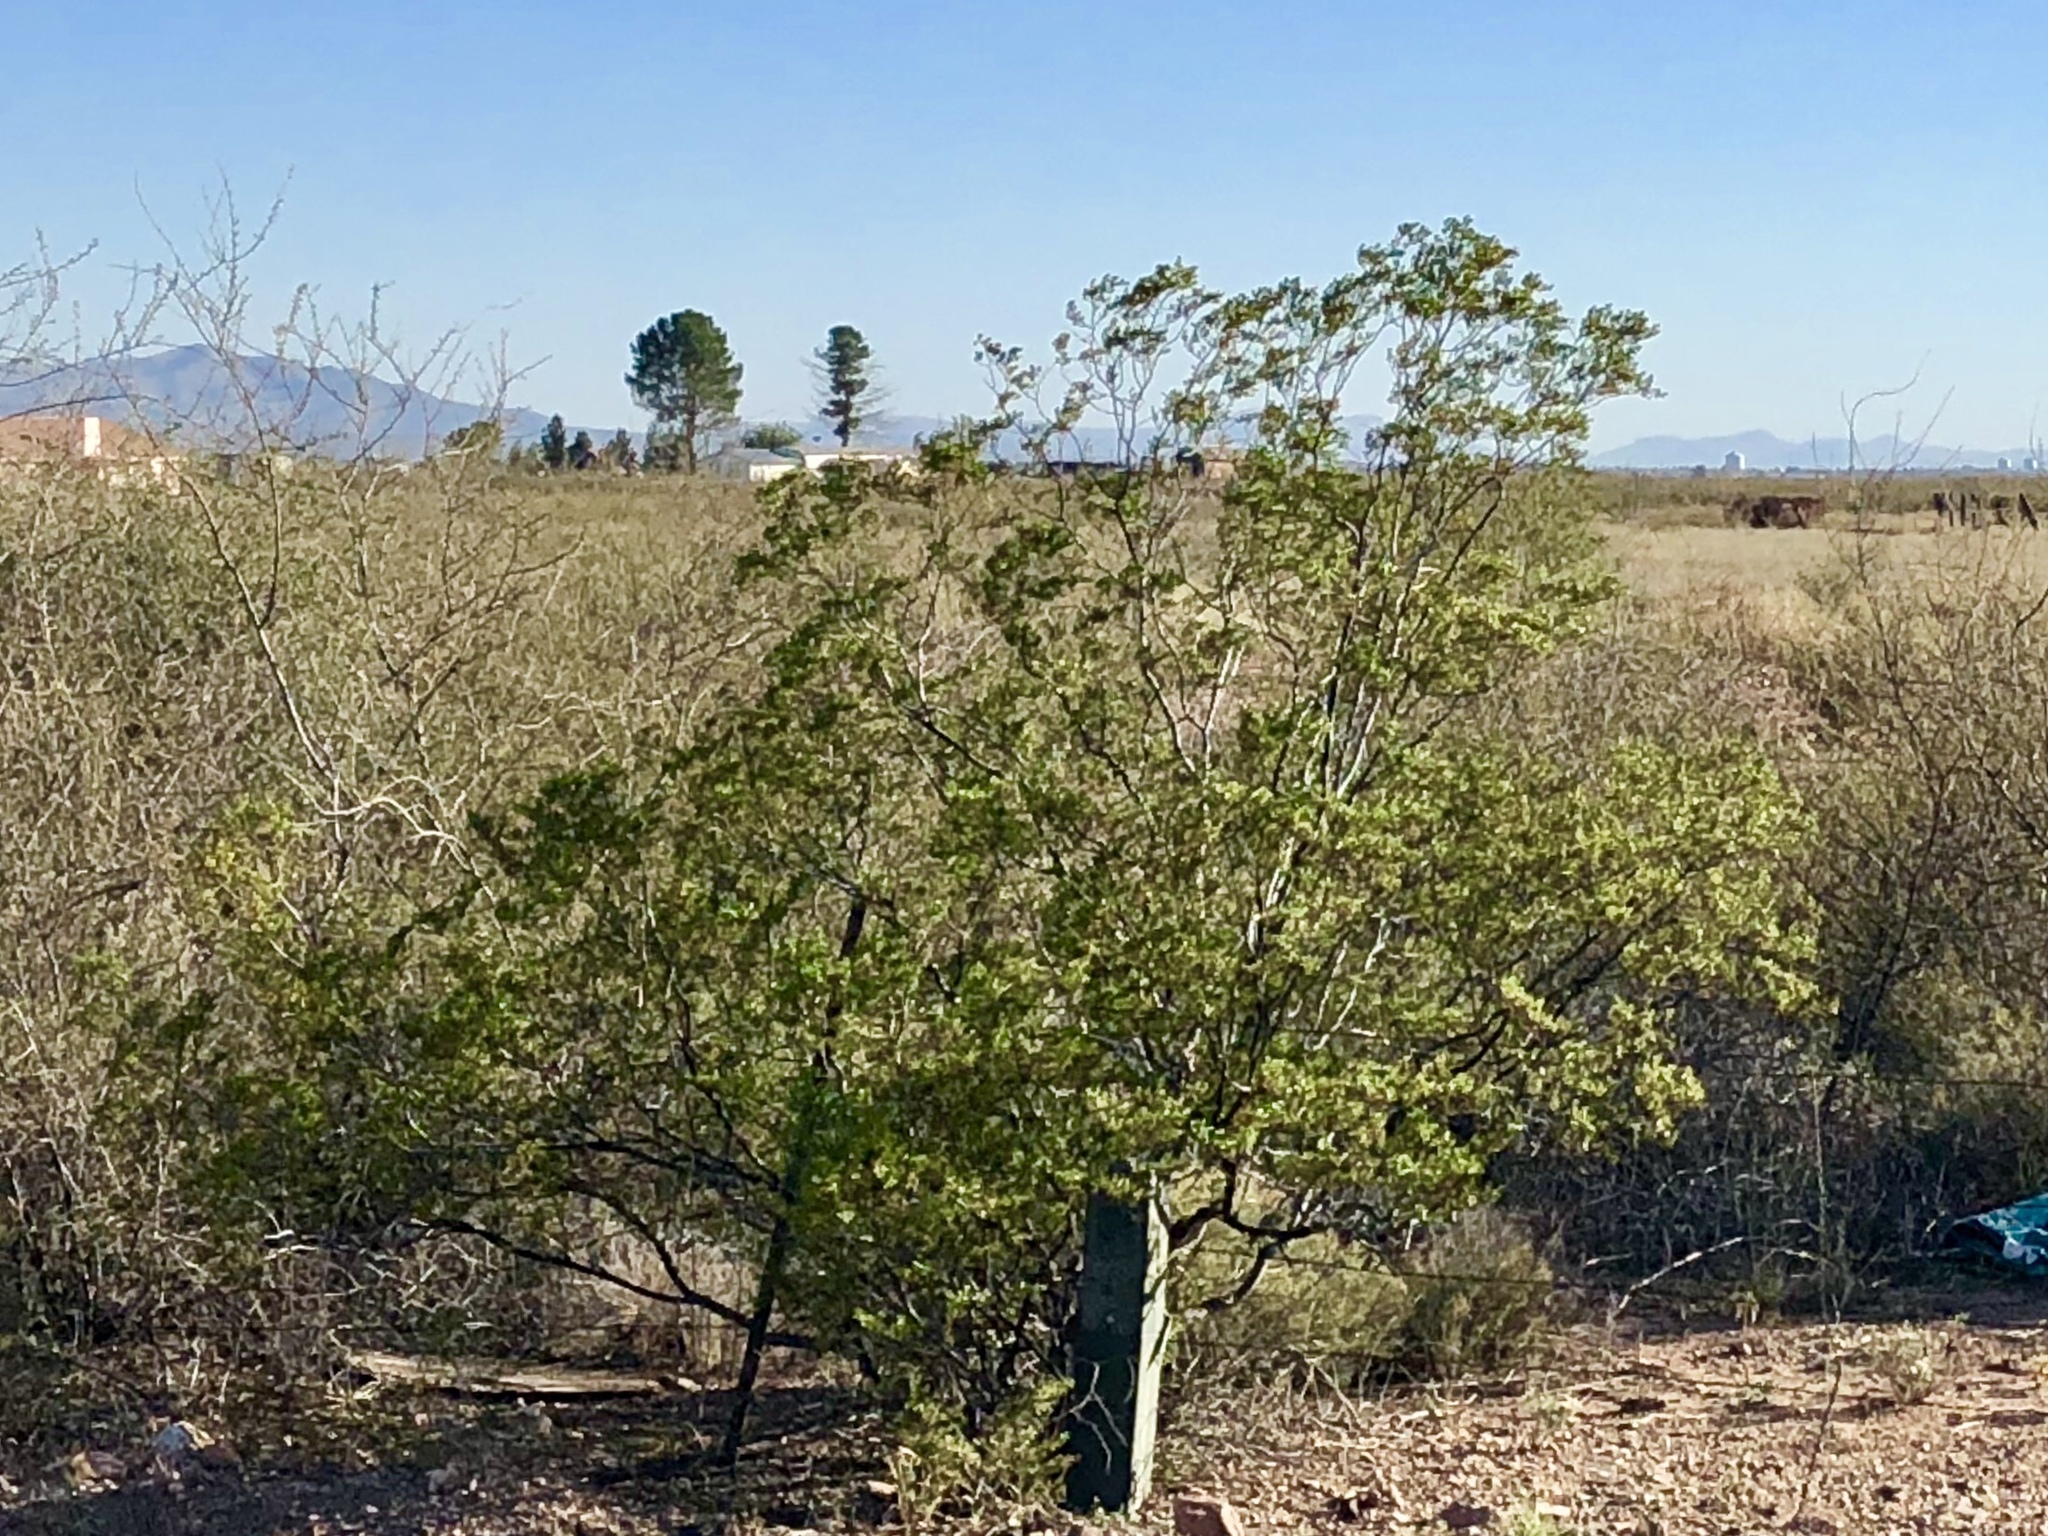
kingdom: Plantae
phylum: Tracheophyta
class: Magnoliopsida
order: Zygophyllales
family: Zygophyllaceae
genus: Larrea
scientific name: Larrea tridentata
